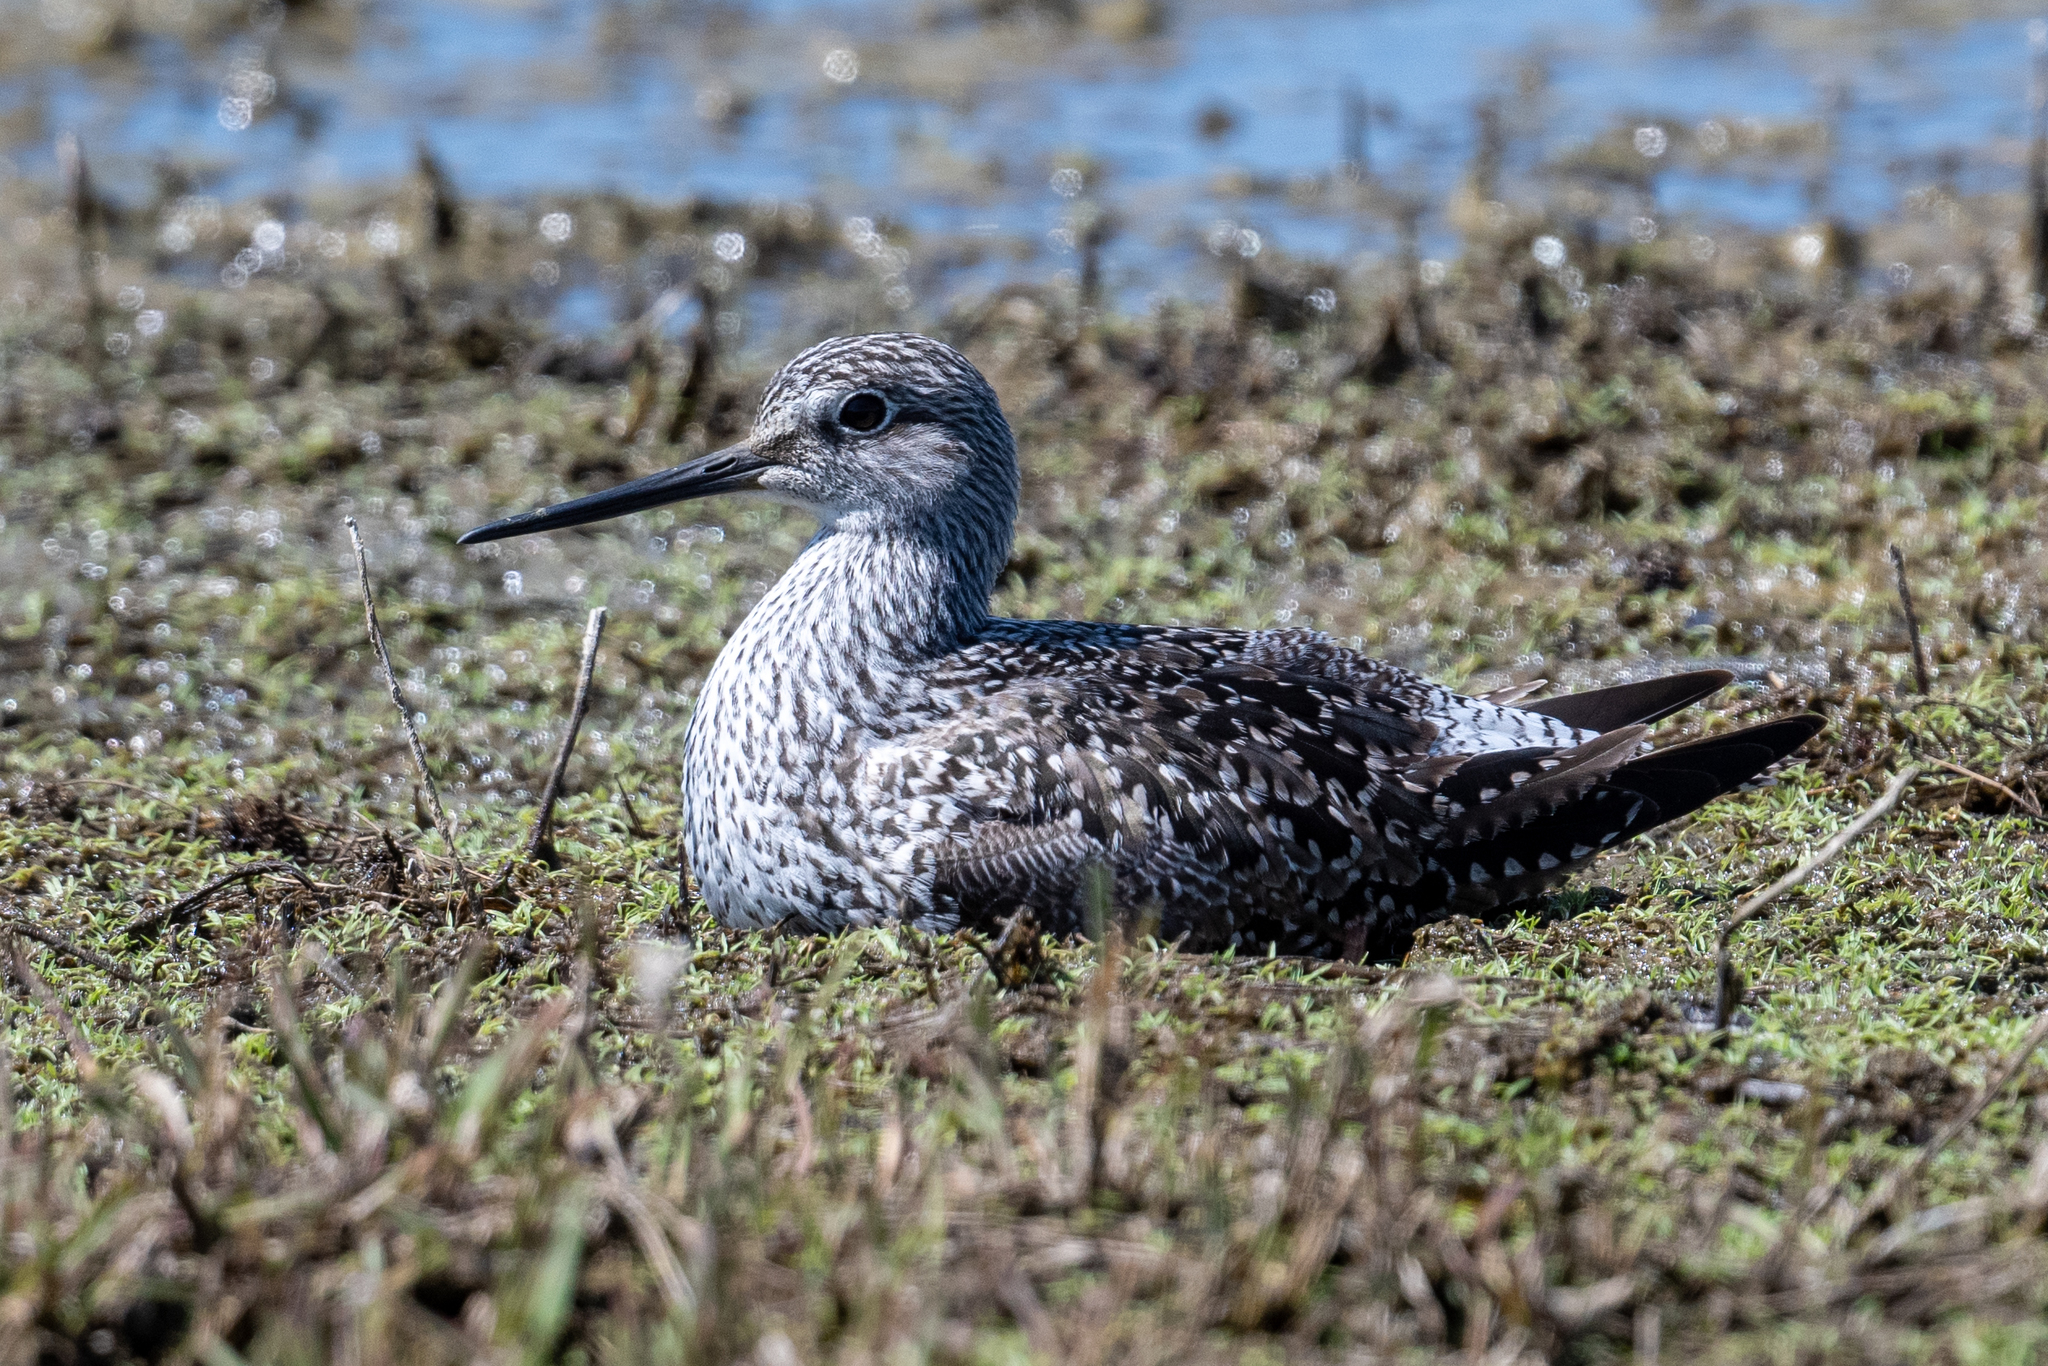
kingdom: Animalia
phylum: Chordata
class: Aves
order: Charadriiformes
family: Scolopacidae
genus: Tringa
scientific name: Tringa melanoleuca
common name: Greater yellowlegs
